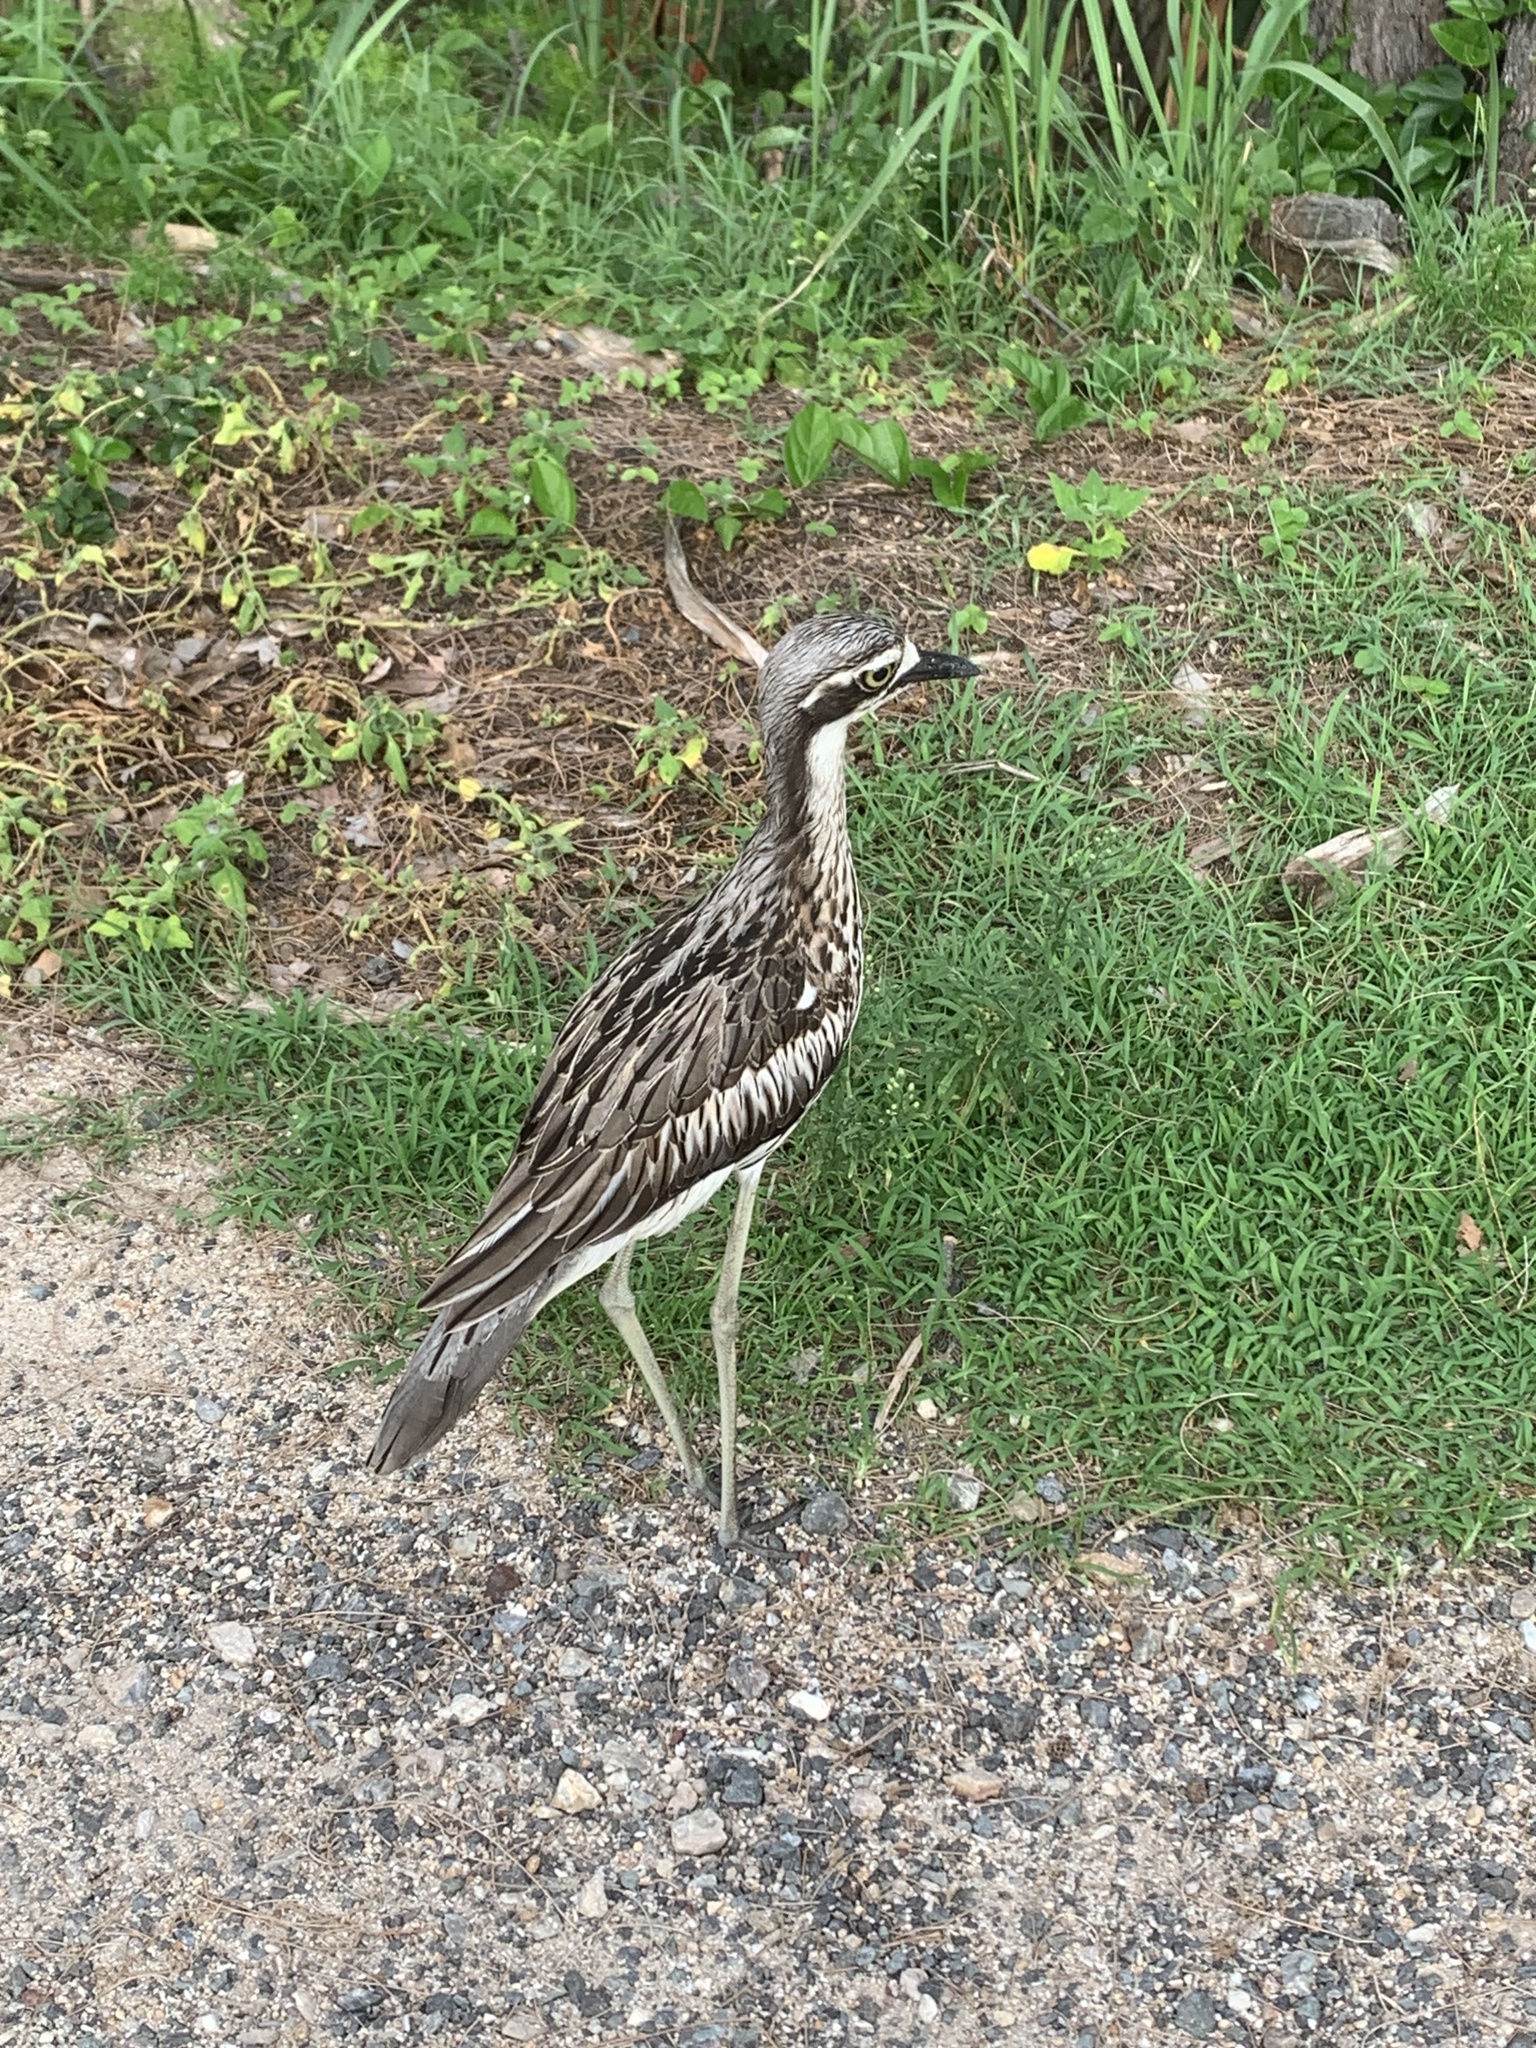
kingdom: Animalia
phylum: Chordata
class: Aves
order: Charadriiformes
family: Burhinidae
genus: Burhinus
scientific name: Burhinus grallarius
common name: Bush stone-curlew
